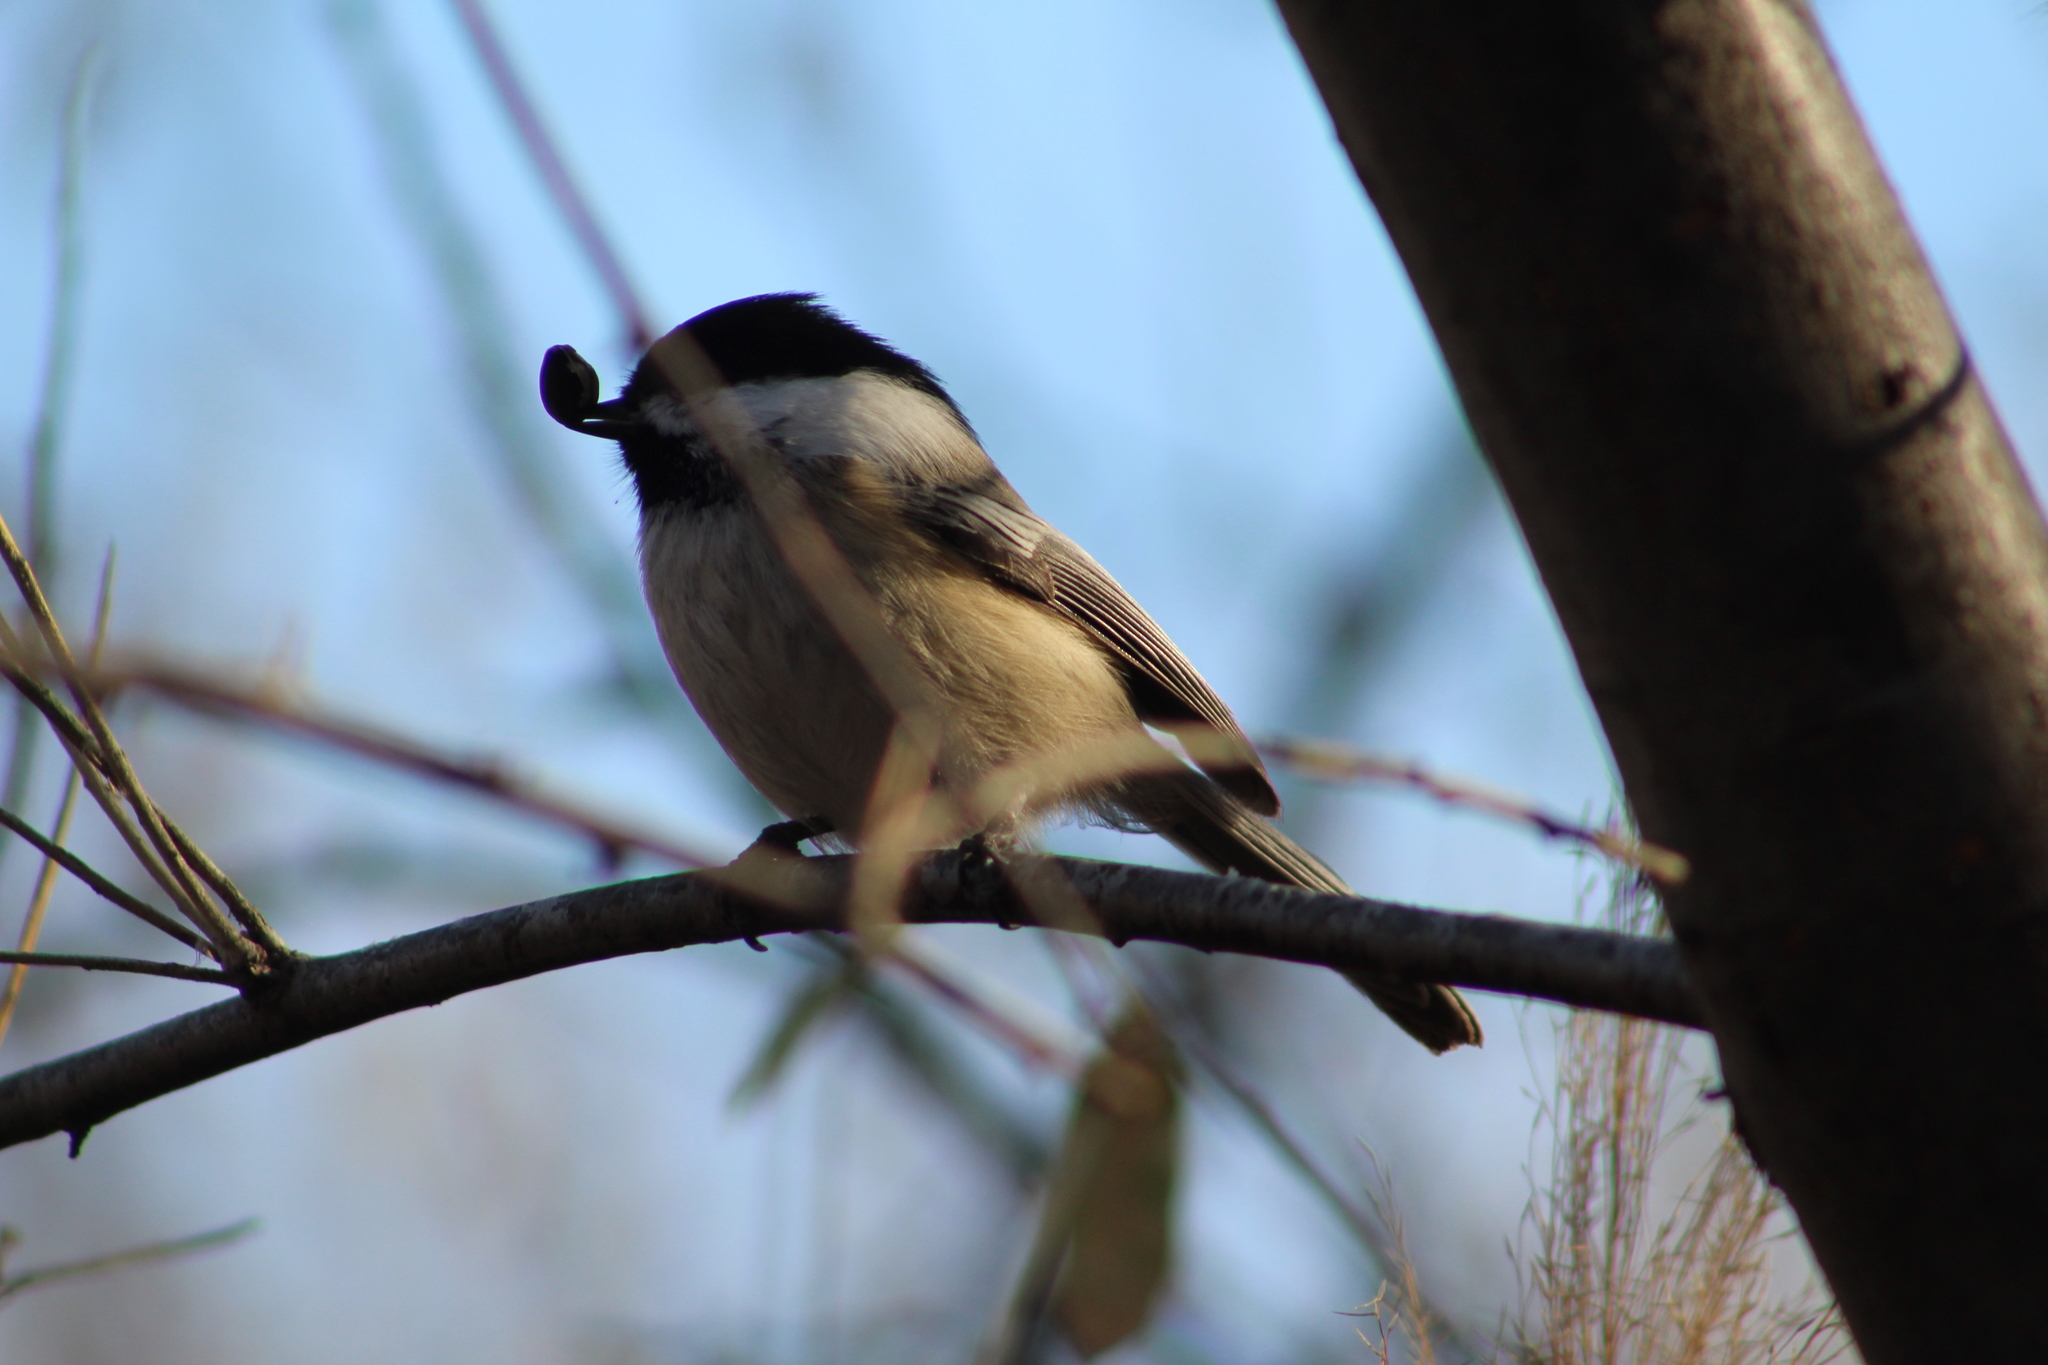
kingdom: Animalia
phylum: Chordata
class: Aves
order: Passeriformes
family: Paridae
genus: Poecile
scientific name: Poecile atricapillus
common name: Black-capped chickadee
